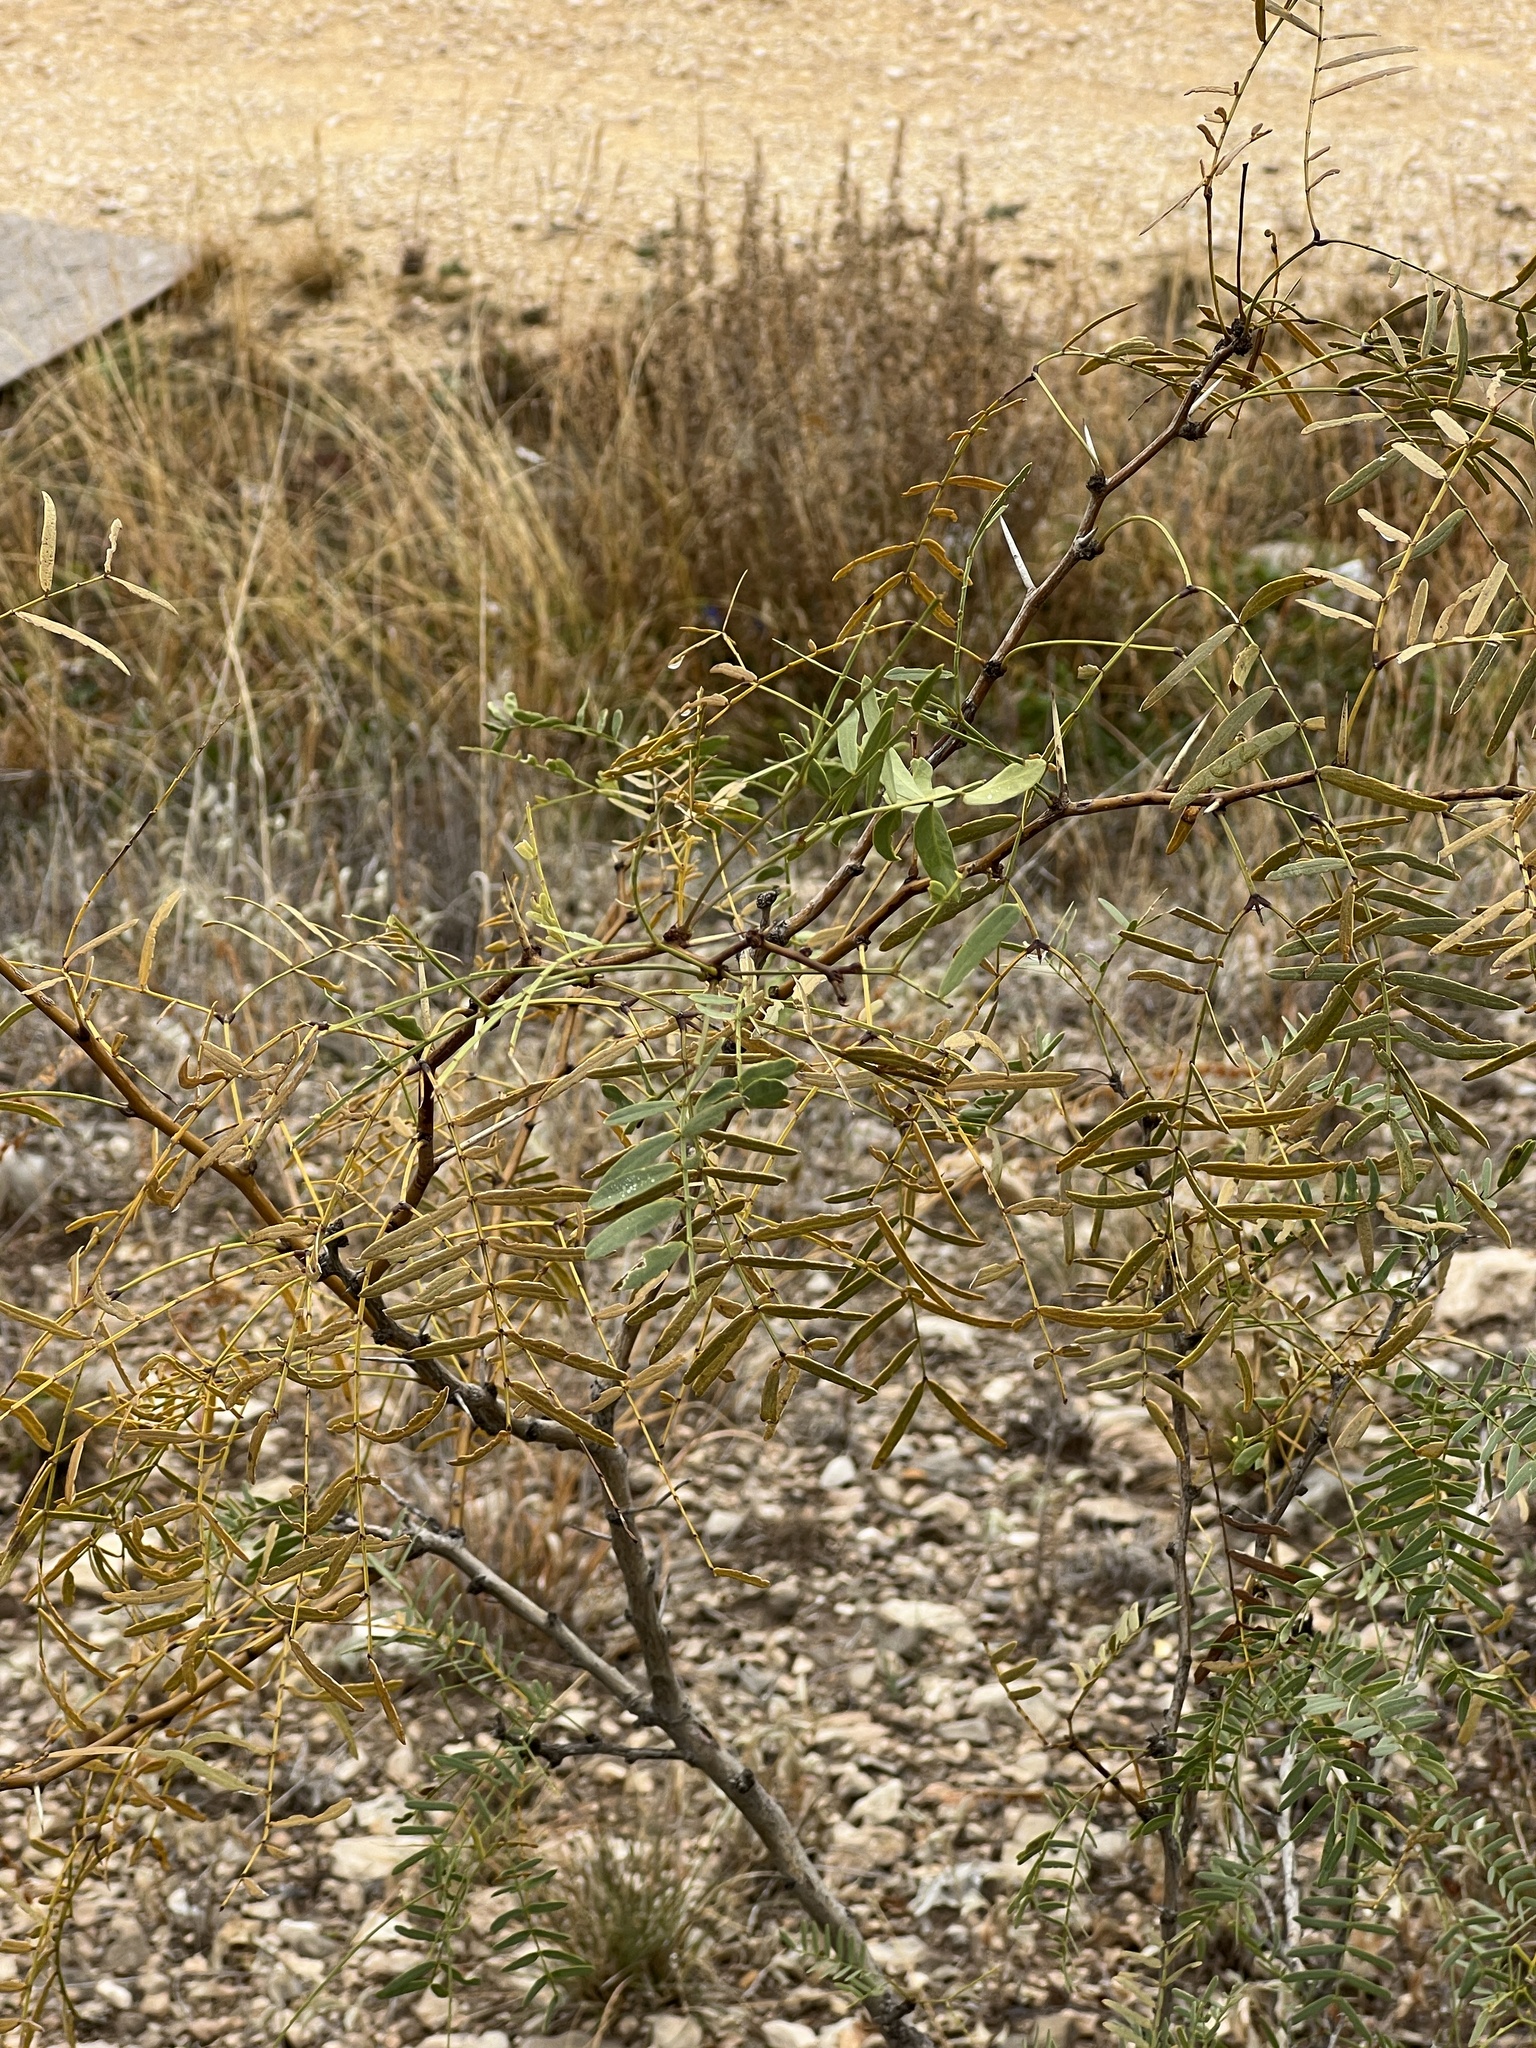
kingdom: Plantae
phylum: Tracheophyta
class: Magnoliopsida
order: Fabales
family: Fabaceae
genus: Prosopis
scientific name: Prosopis glandulosa
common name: Honey mesquite
